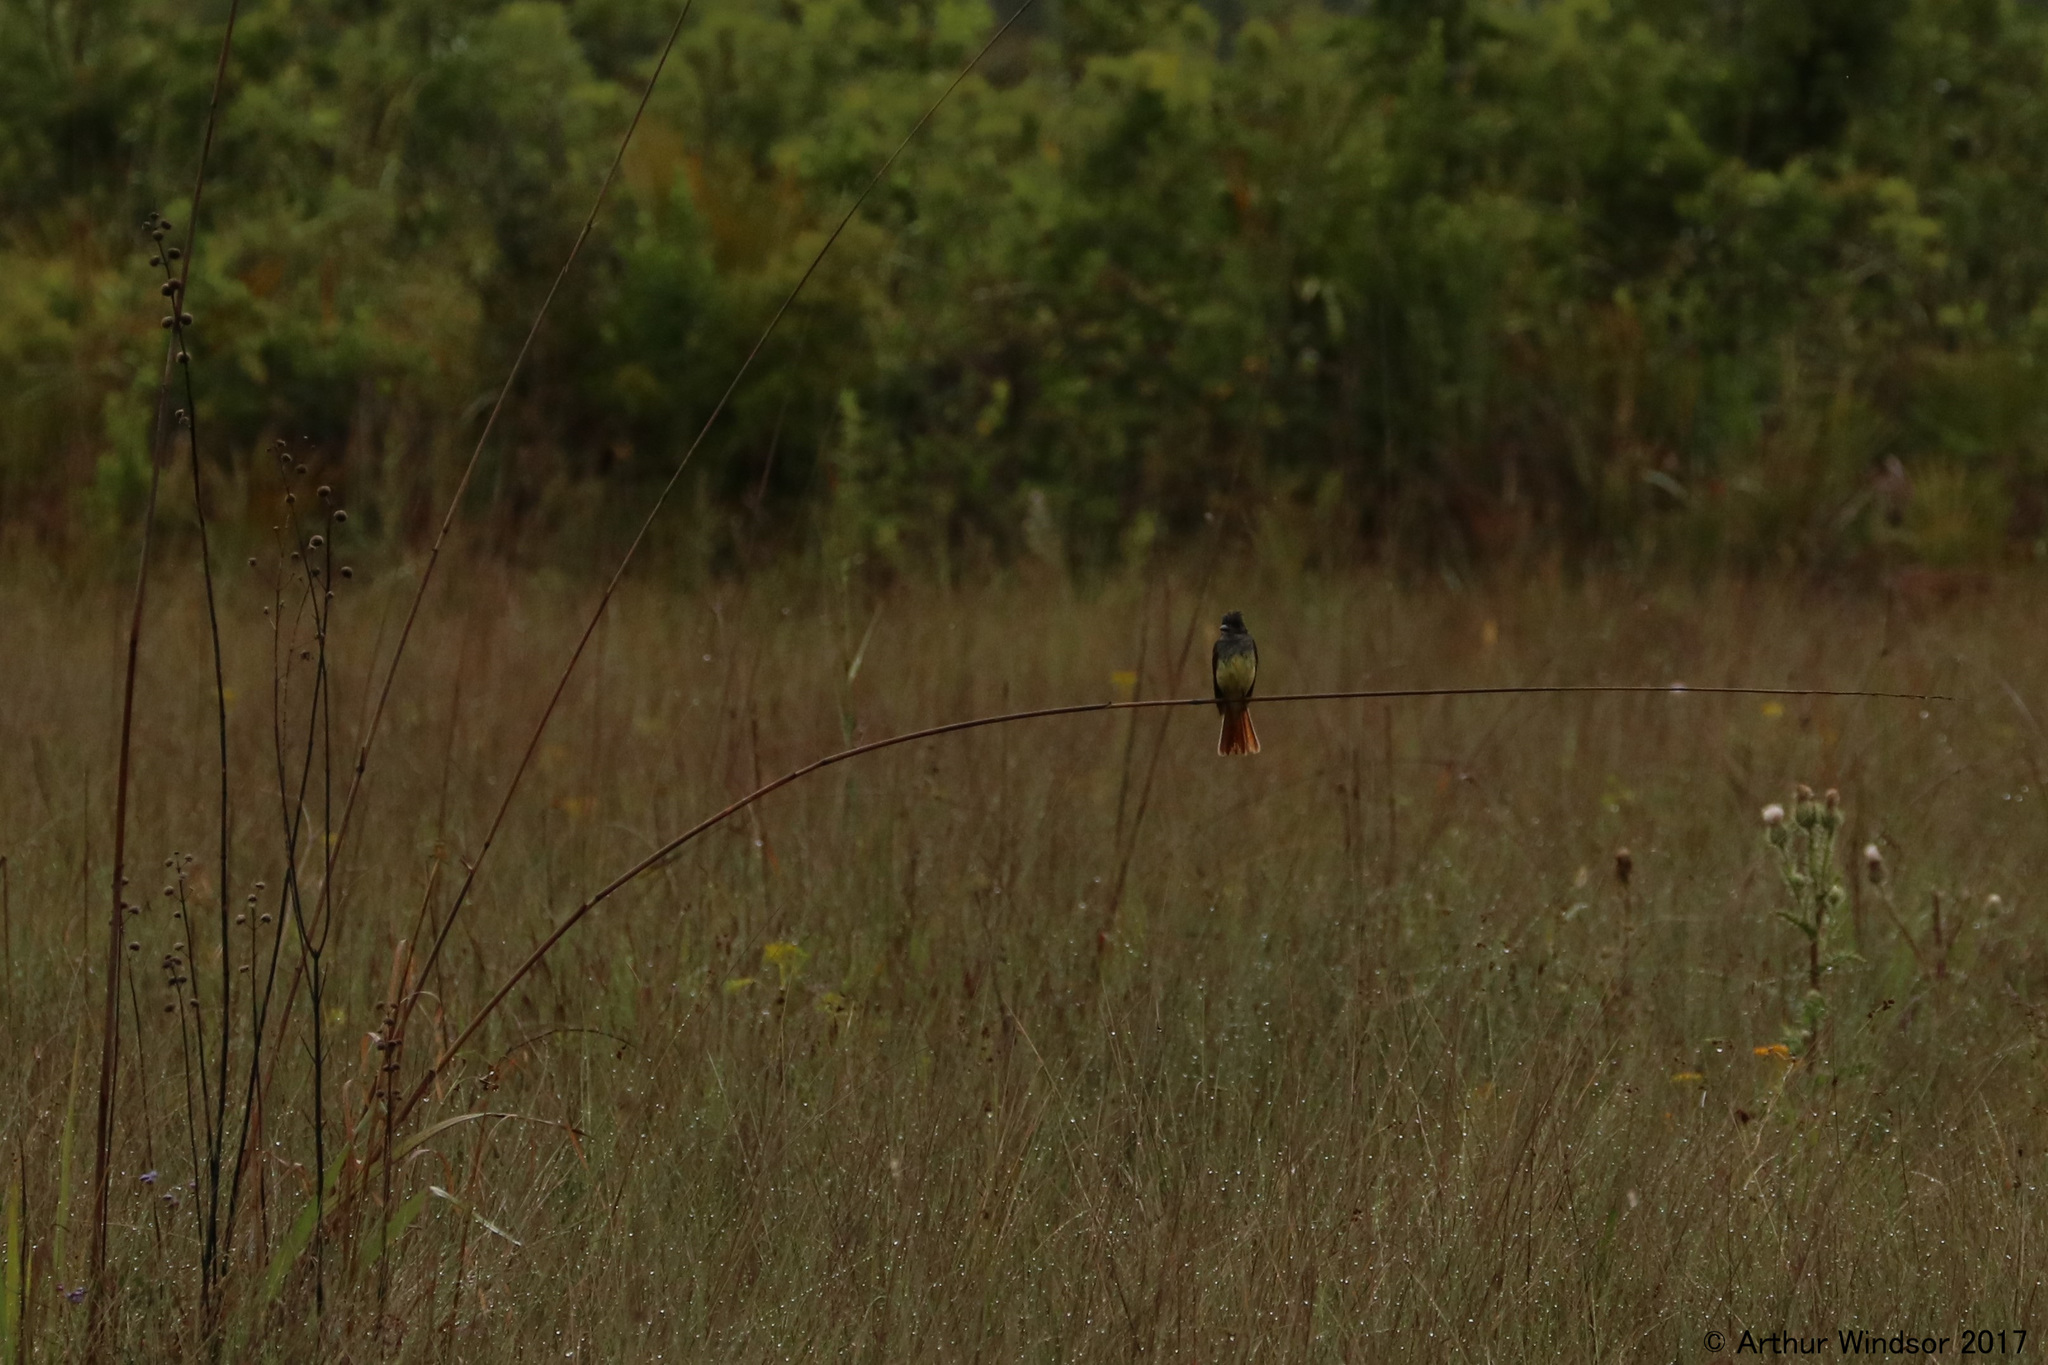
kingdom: Animalia
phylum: Chordata
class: Aves
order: Passeriformes
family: Tyrannidae
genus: Myiarchus
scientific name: Myiarchus crinitus
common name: Great crested flycatcher
